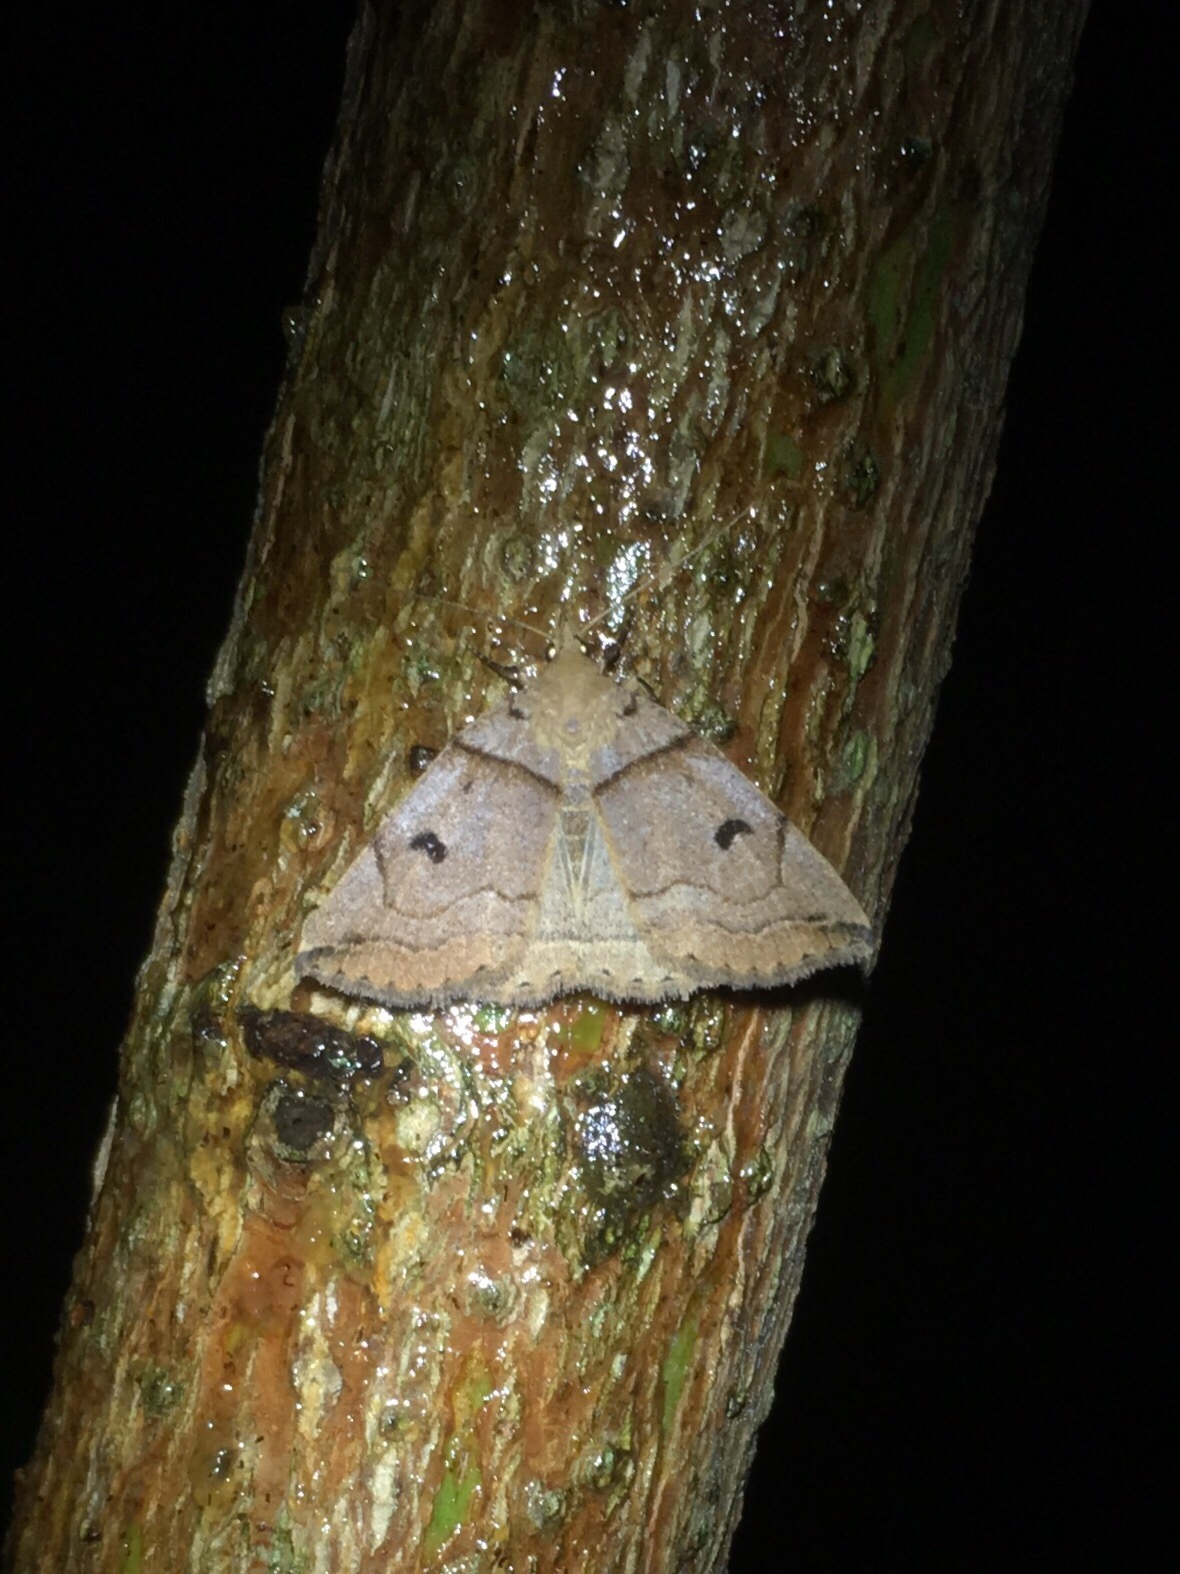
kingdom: Animalia
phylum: Arthropoda
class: Insecta
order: Lepidoptera
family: Erebidae
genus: Zanclognatha
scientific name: Zanclognatha laevigata
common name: Variable fan-foot
